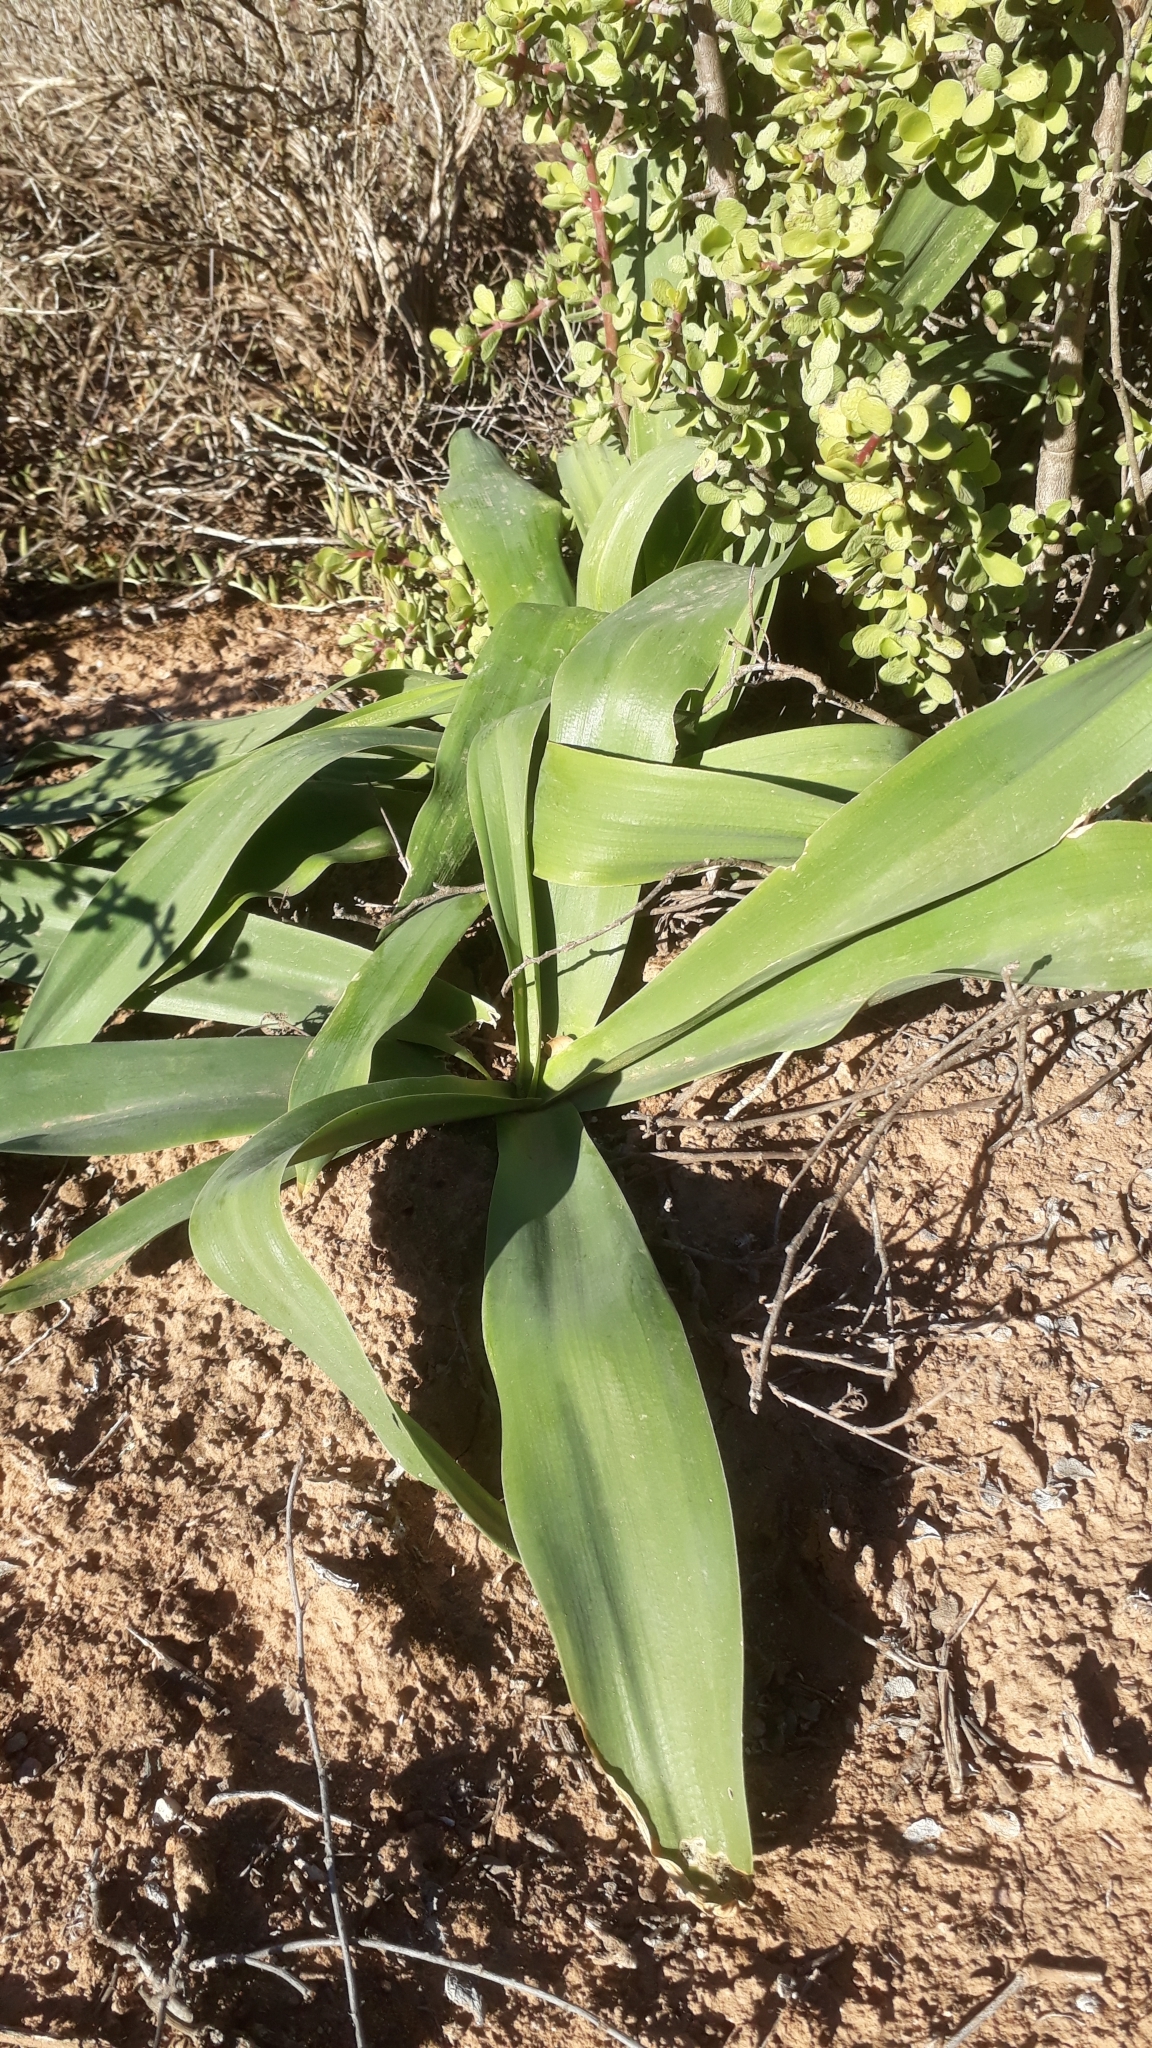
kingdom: Plantae
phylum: Tracheophyta
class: Liliopsida
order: Asparagales
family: Asparagaceae
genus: Drimia
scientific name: Drimia altissima
